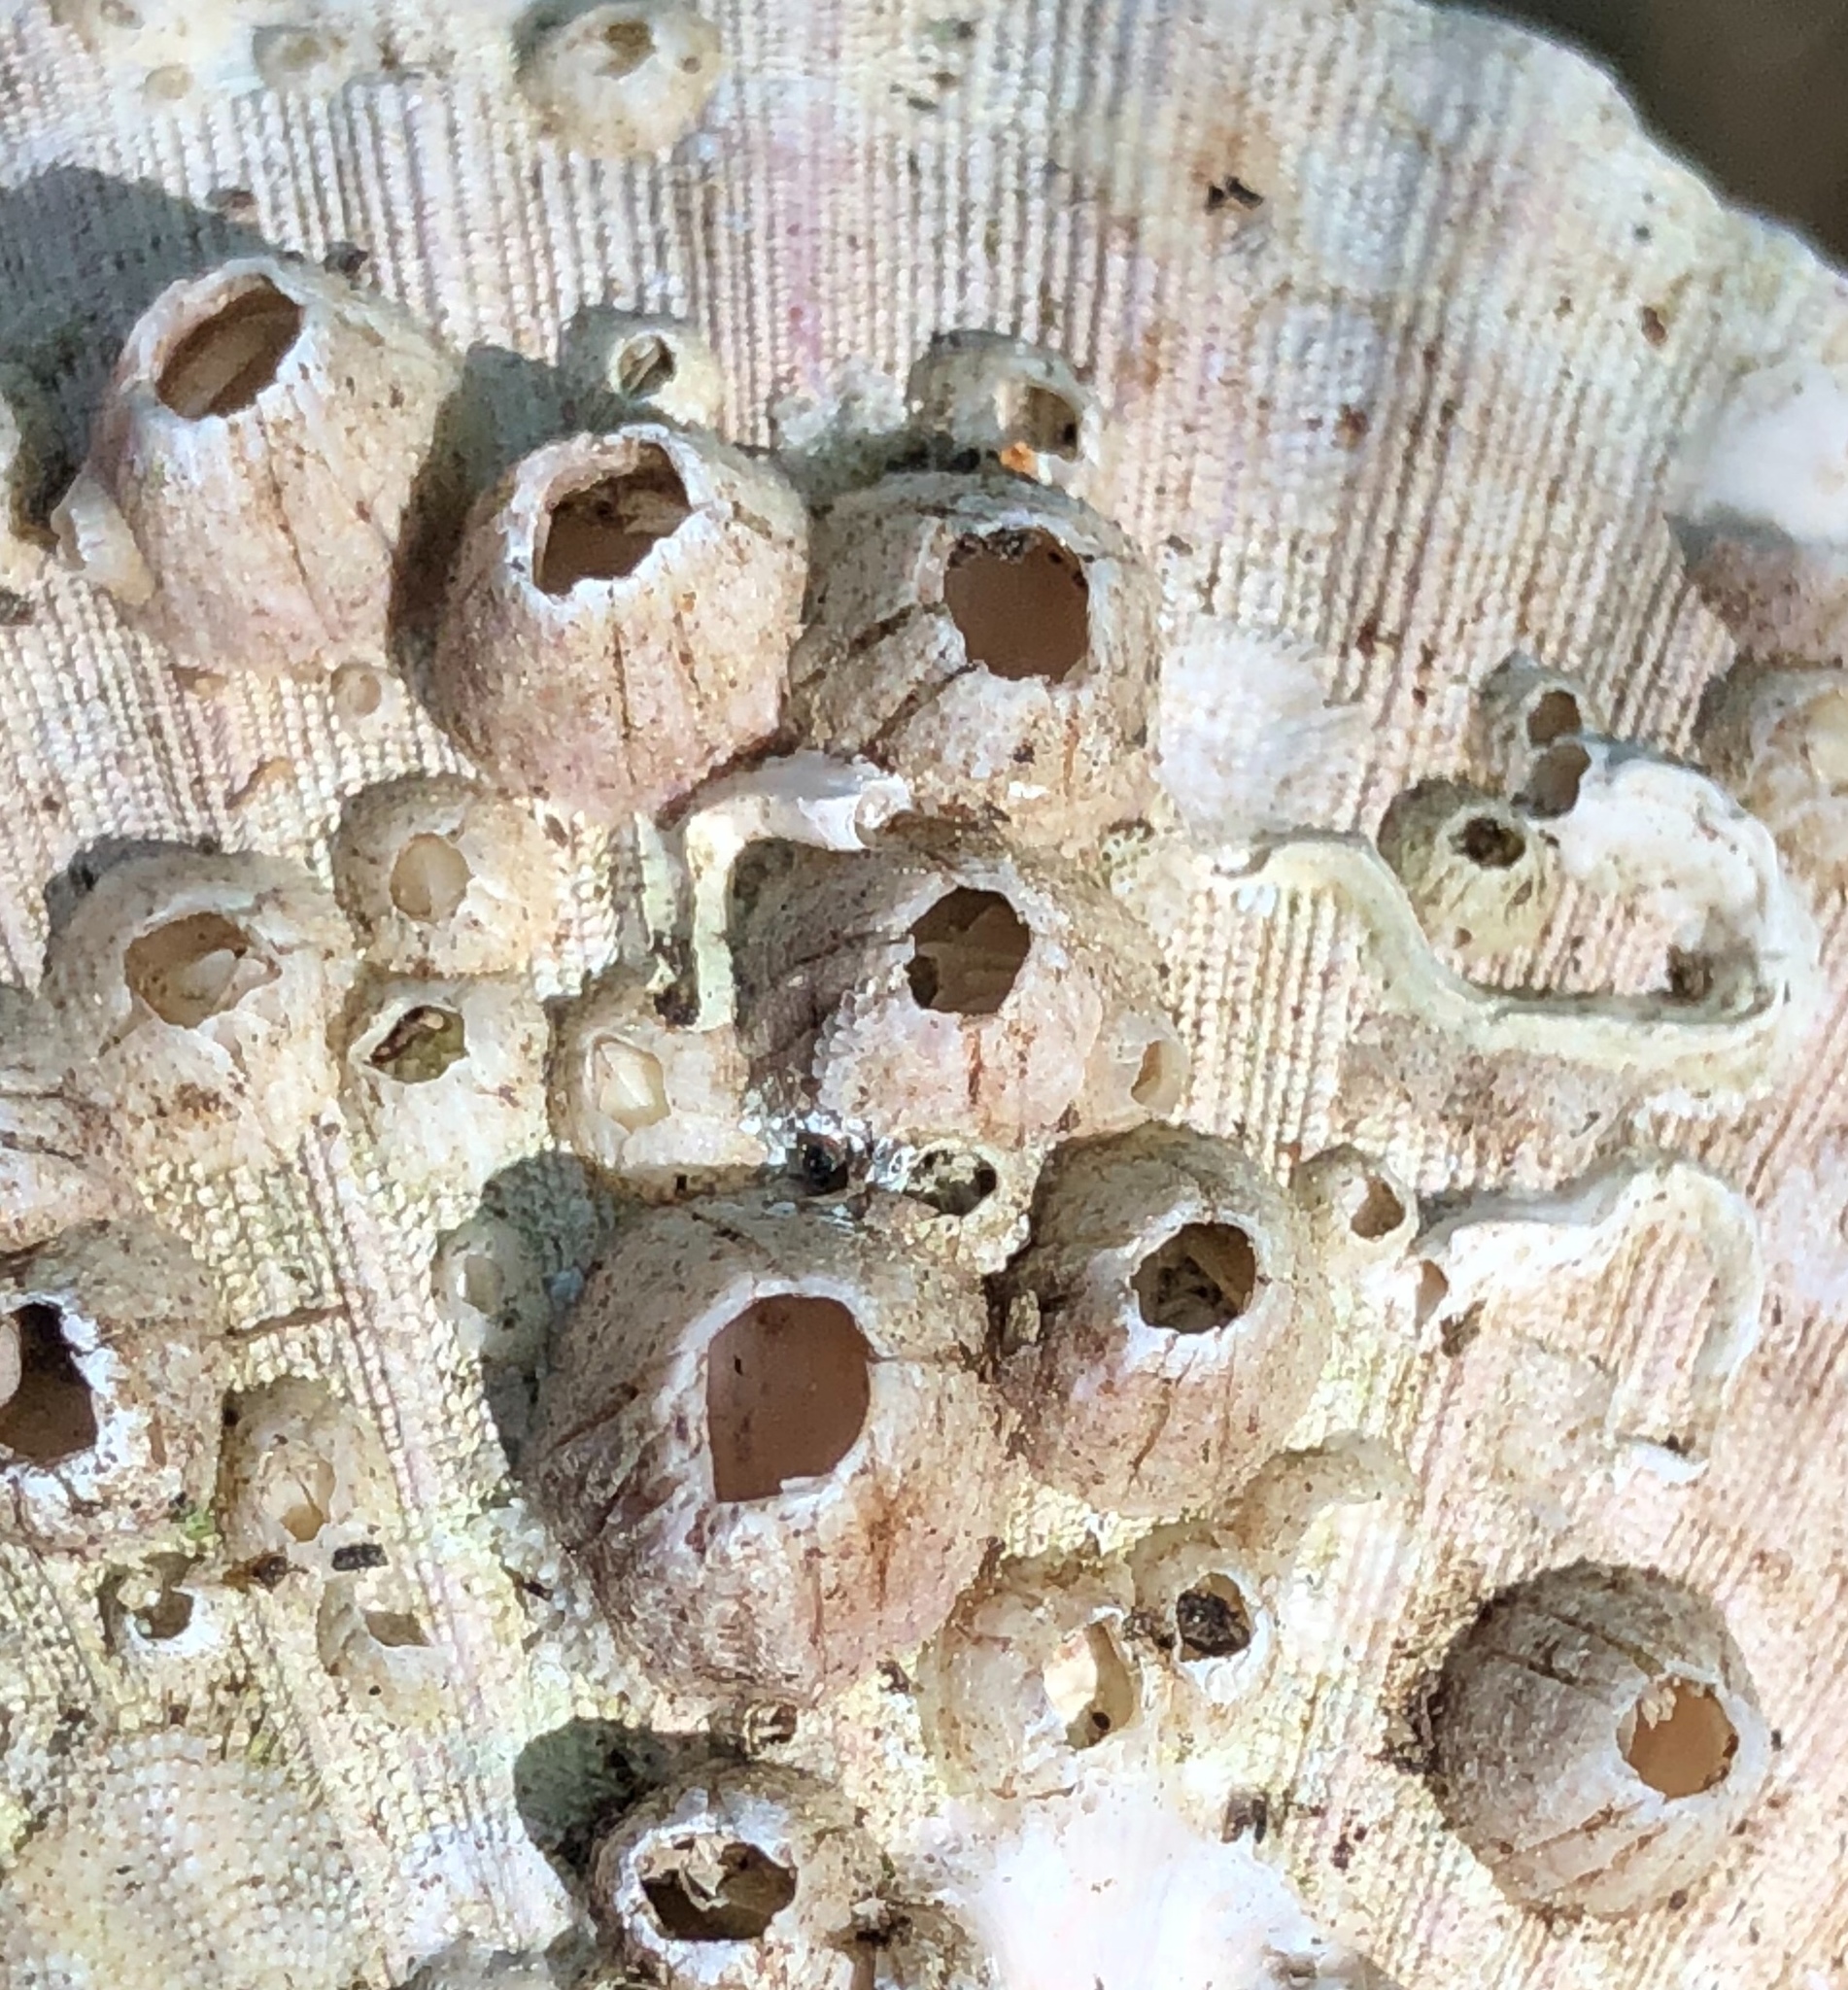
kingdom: Animalia
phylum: Arthropoda
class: Maxillopoda
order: Sessilia
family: Balanidae
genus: Perforatus
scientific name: Perforatus perforatus
